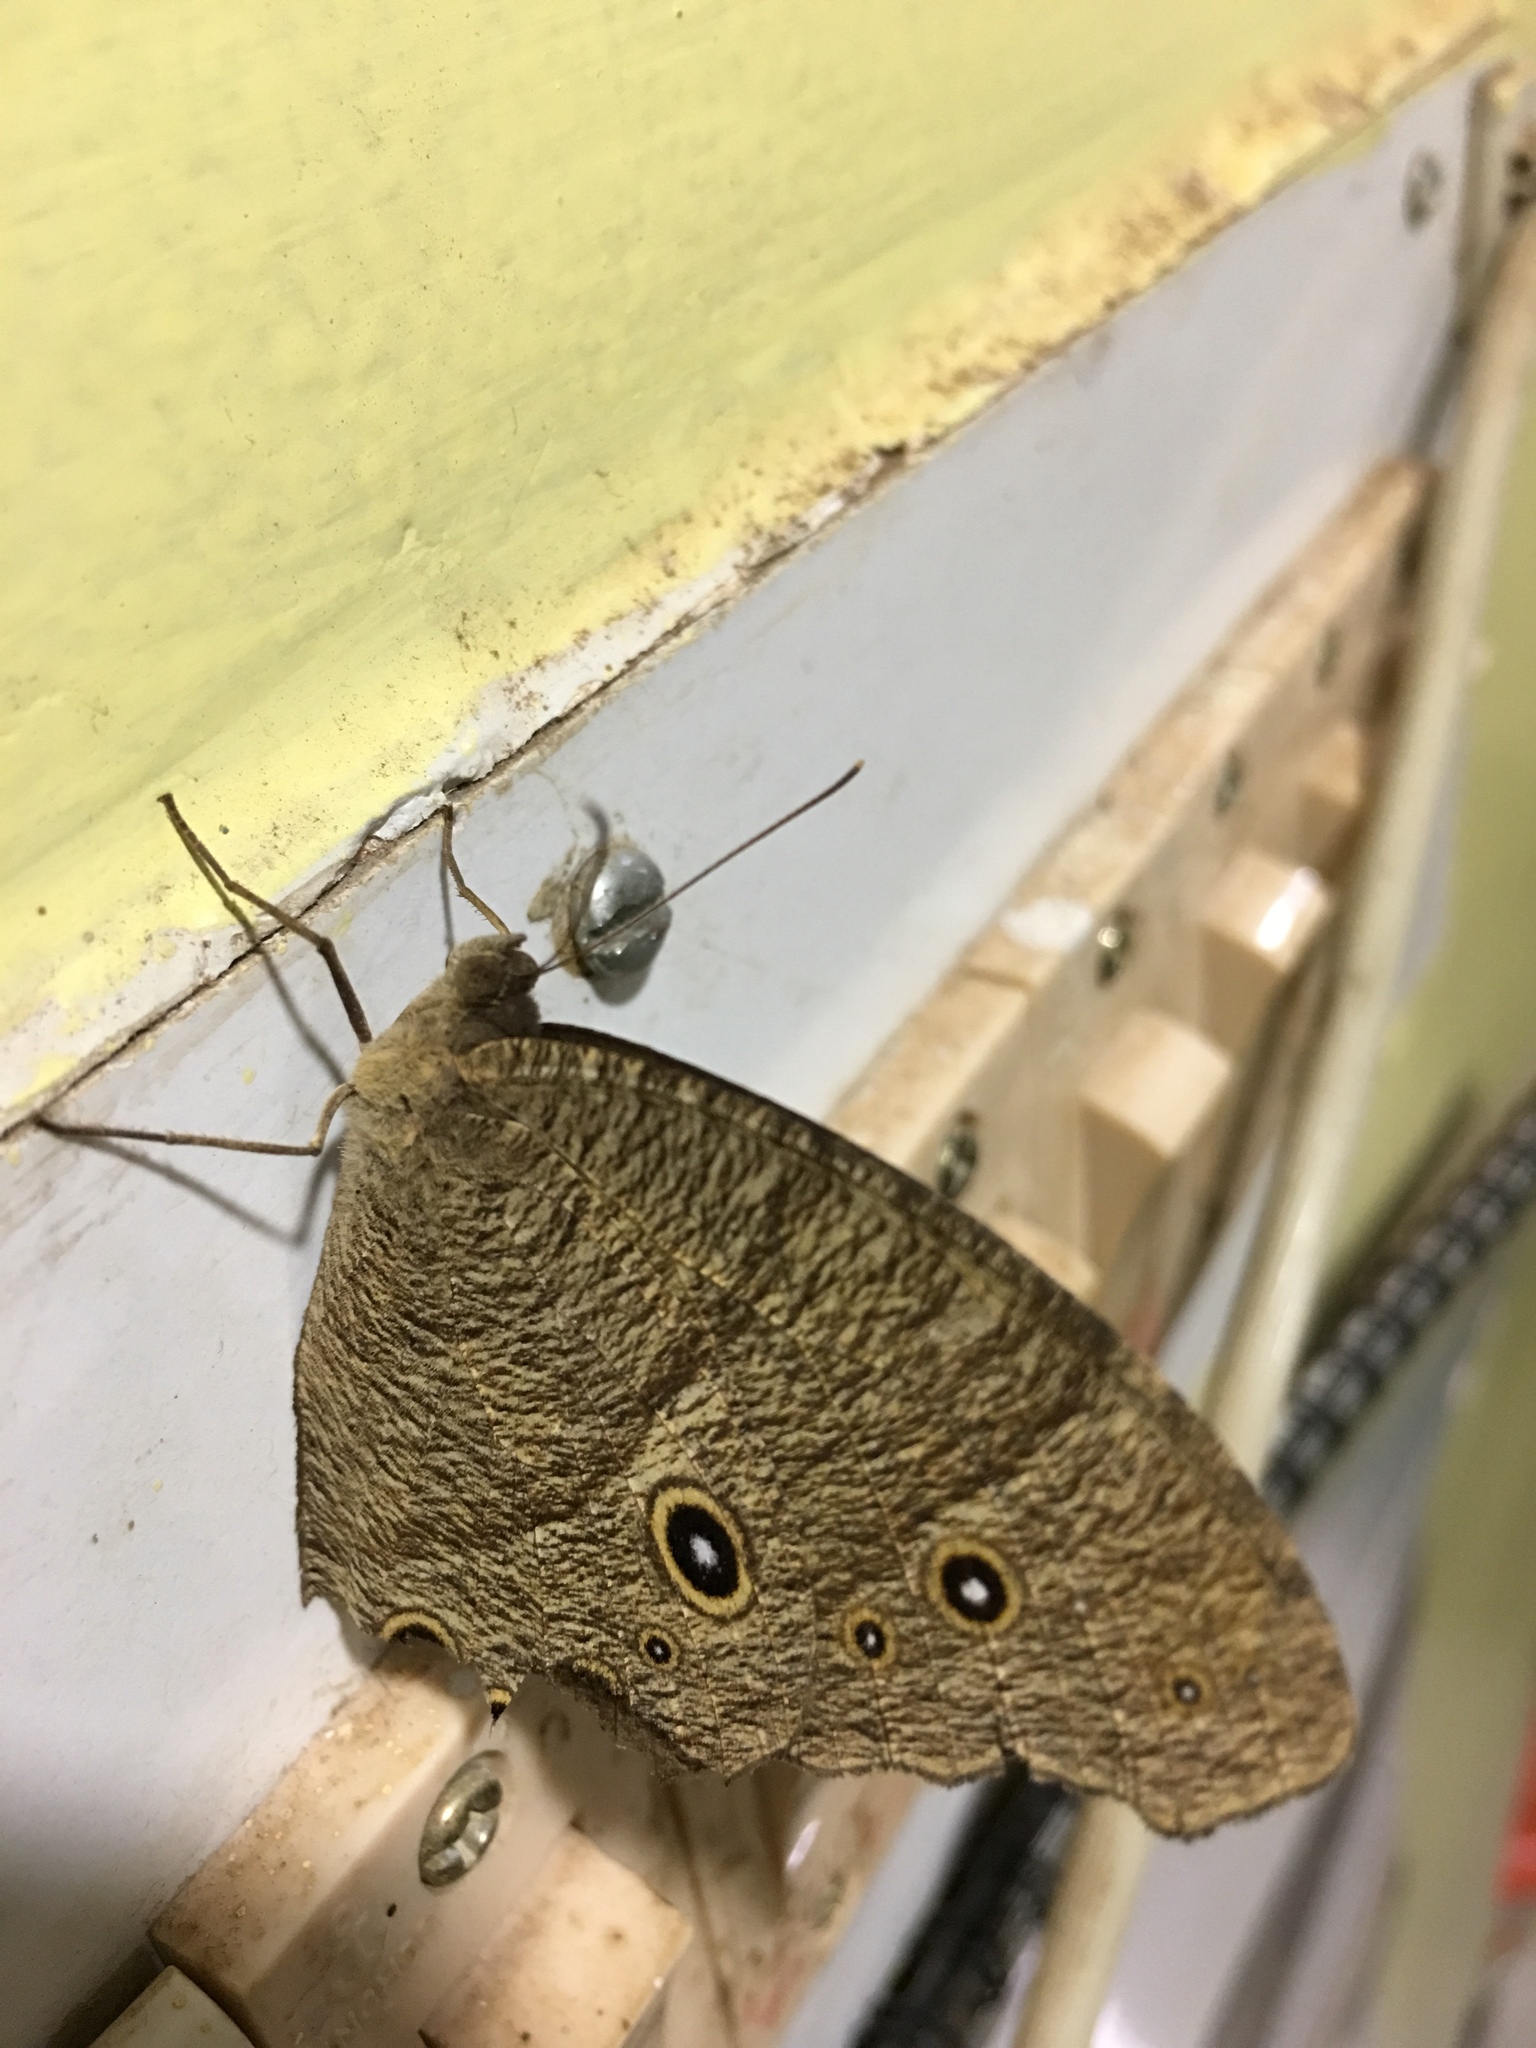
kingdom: Animalia
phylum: Arthropoda
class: Insecta
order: Lepidoptera
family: Nymphalidae
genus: Melanitis
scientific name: Melanitis leda
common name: Twilight brown
